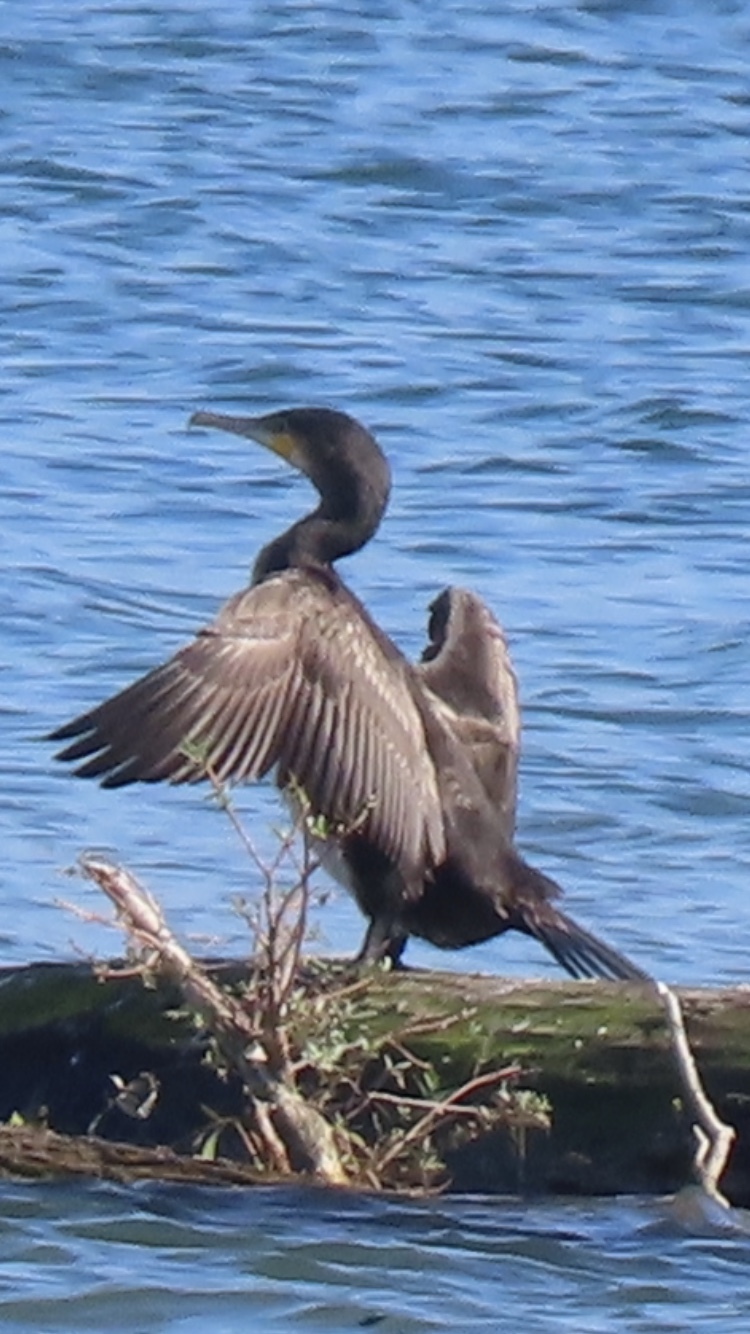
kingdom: Animalia
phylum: Chordata
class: Aves
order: Suliformes
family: Phalacrocoracidae
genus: Phalacrocorax
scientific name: Phalacrocorax carbo
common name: Great cormorant
